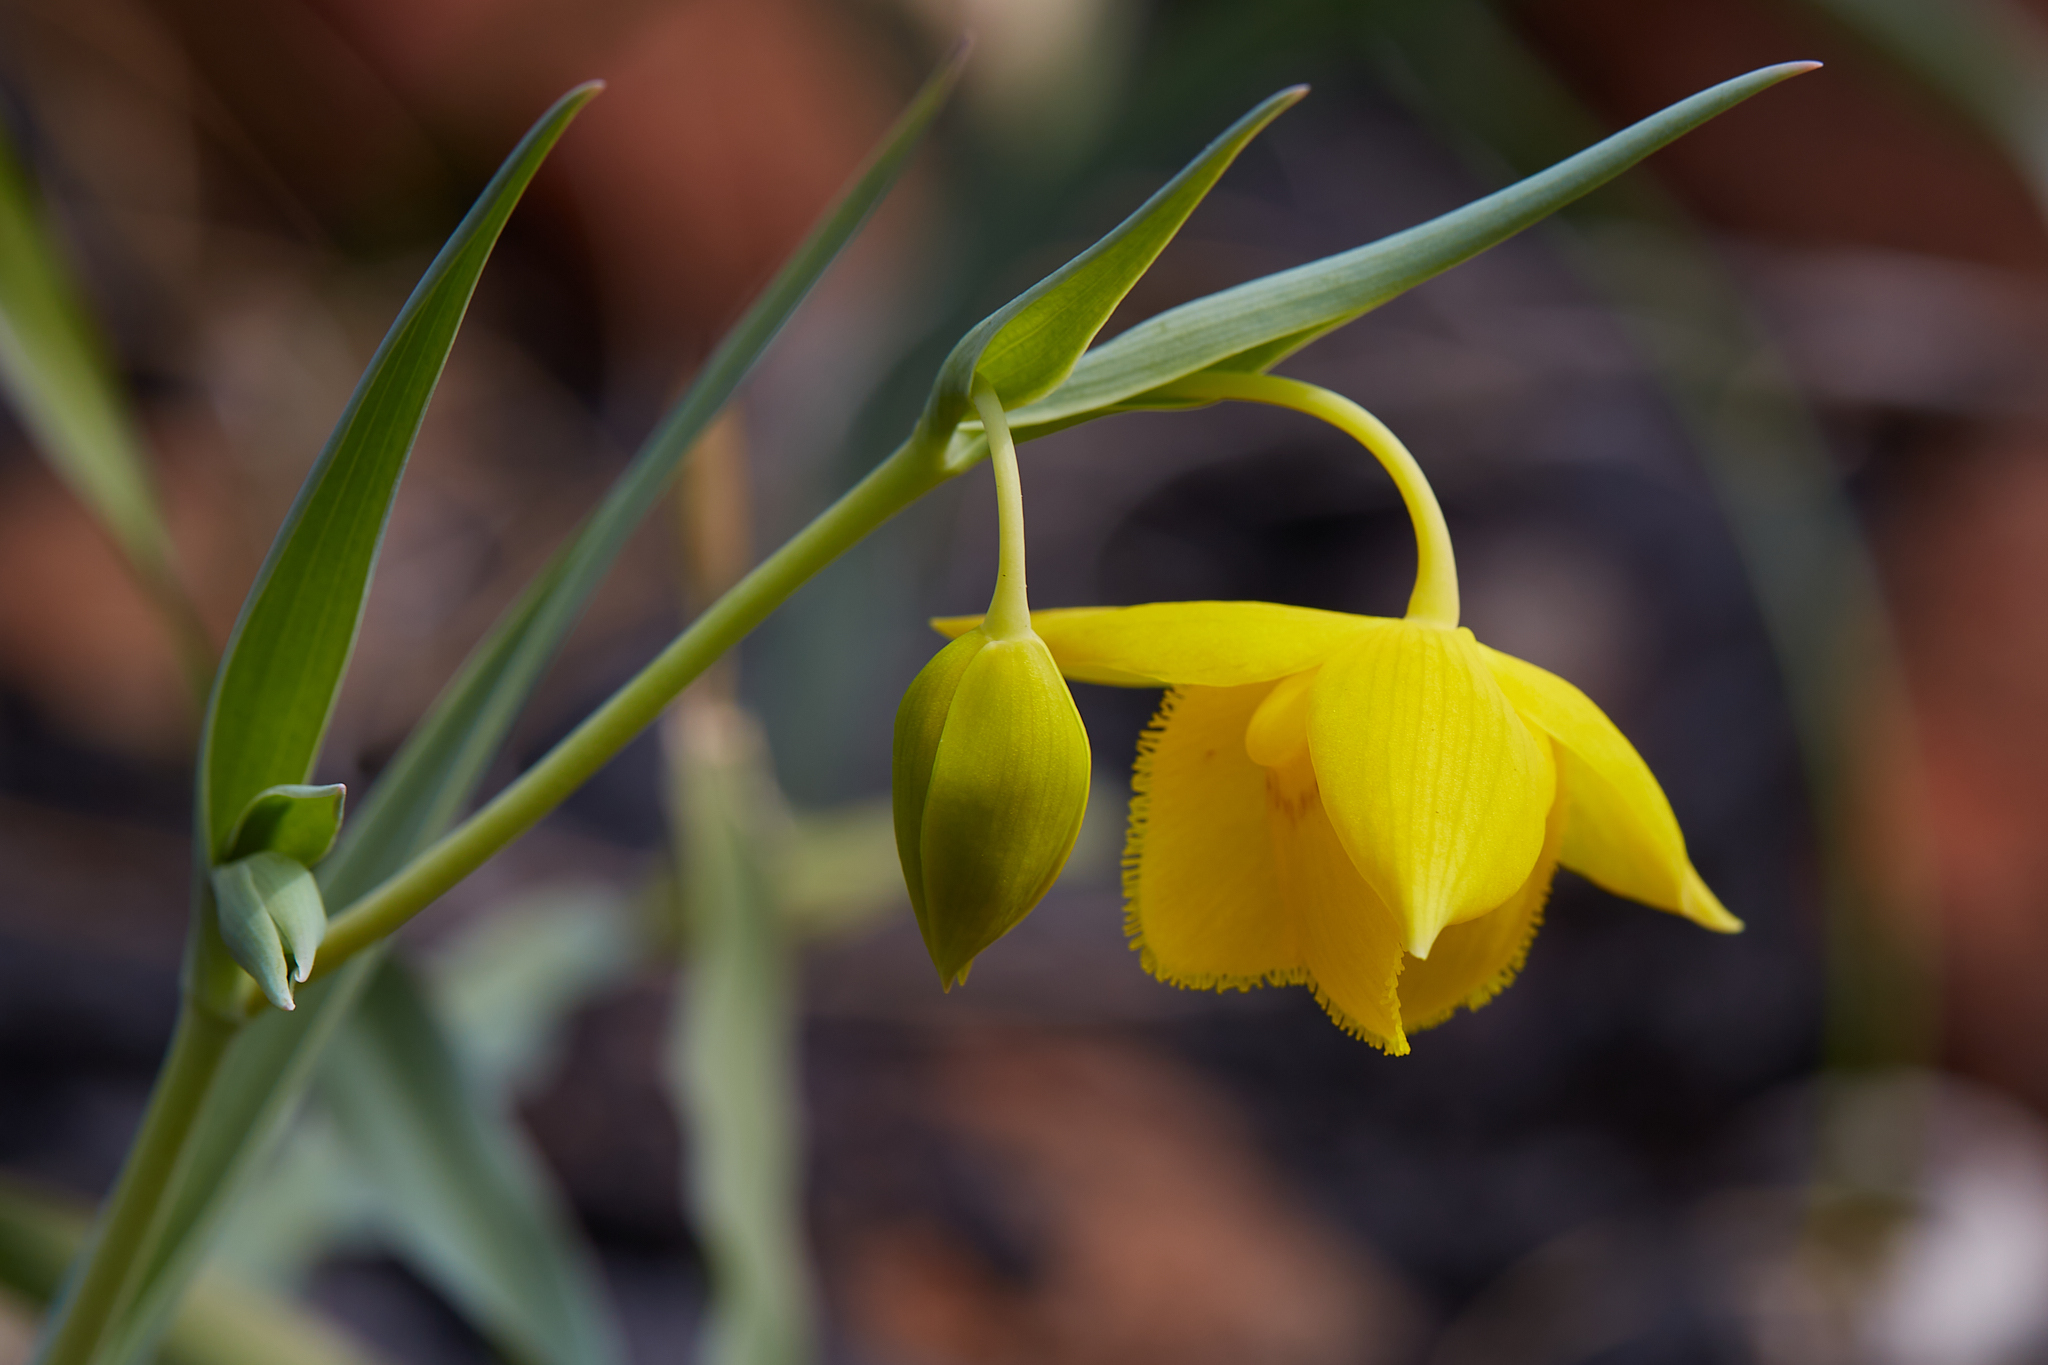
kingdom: Plantae
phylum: Tracheophyta
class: Liliopsida
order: Liliales
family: Liliaceae
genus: Calochortus
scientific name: Calochortus amabilis
